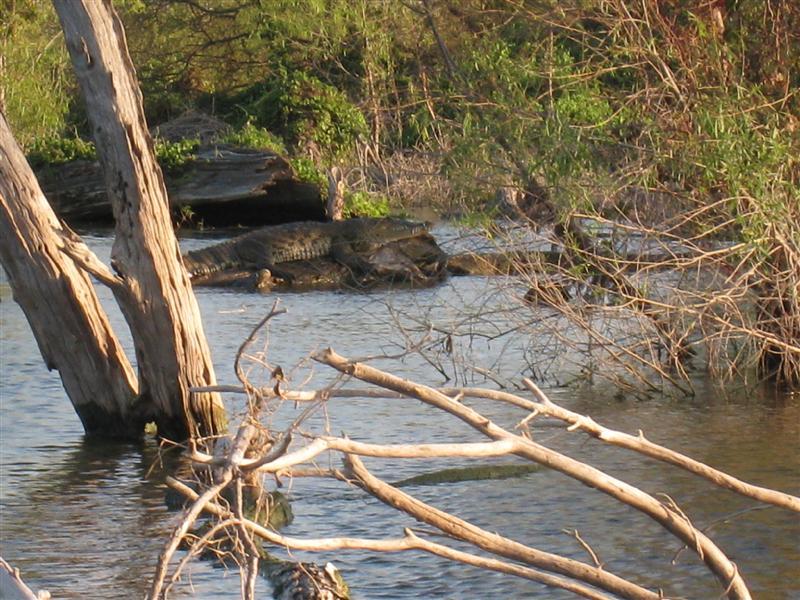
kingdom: Animalia
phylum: Chordata
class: Crocodylia
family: Crocodylidae
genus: Crocodylus
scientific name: Crocodylus moreletii
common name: Morelet's crocodile
